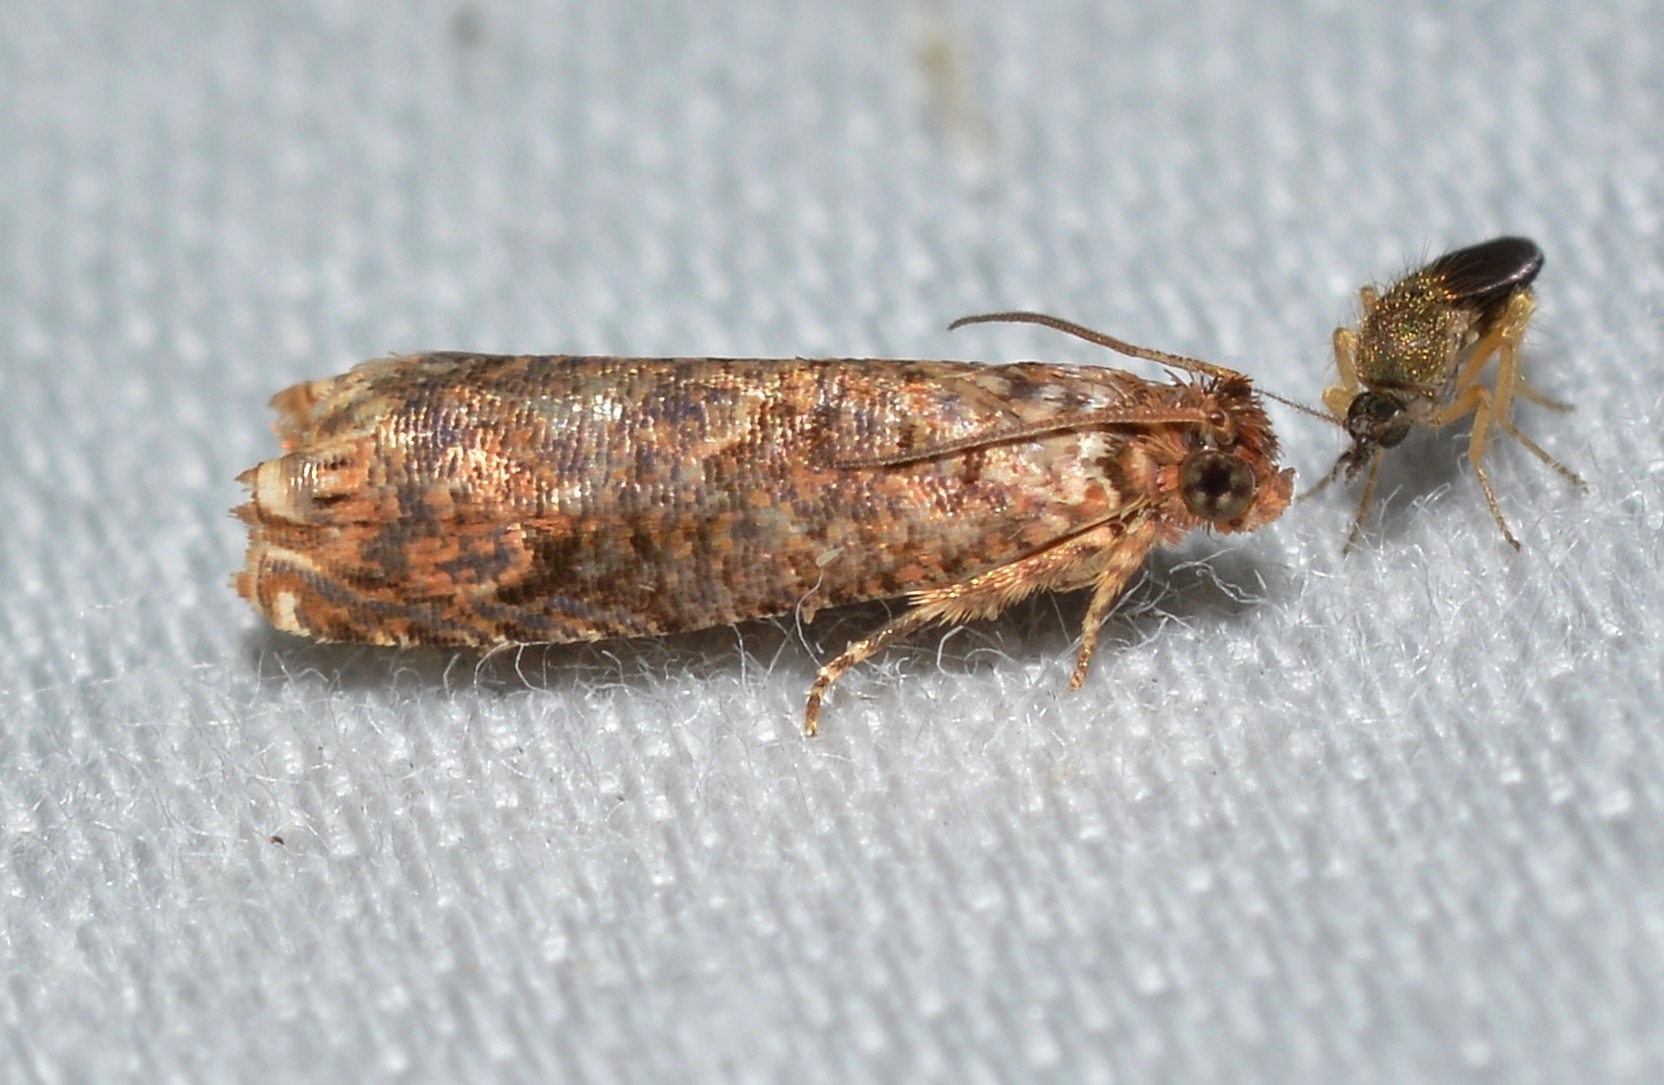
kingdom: Animalia
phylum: Arthropoda
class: Insecta
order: Lepidoptera
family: Tortricidae
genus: Episimus
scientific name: Episimus argutana
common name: Sumac leaftier moth
